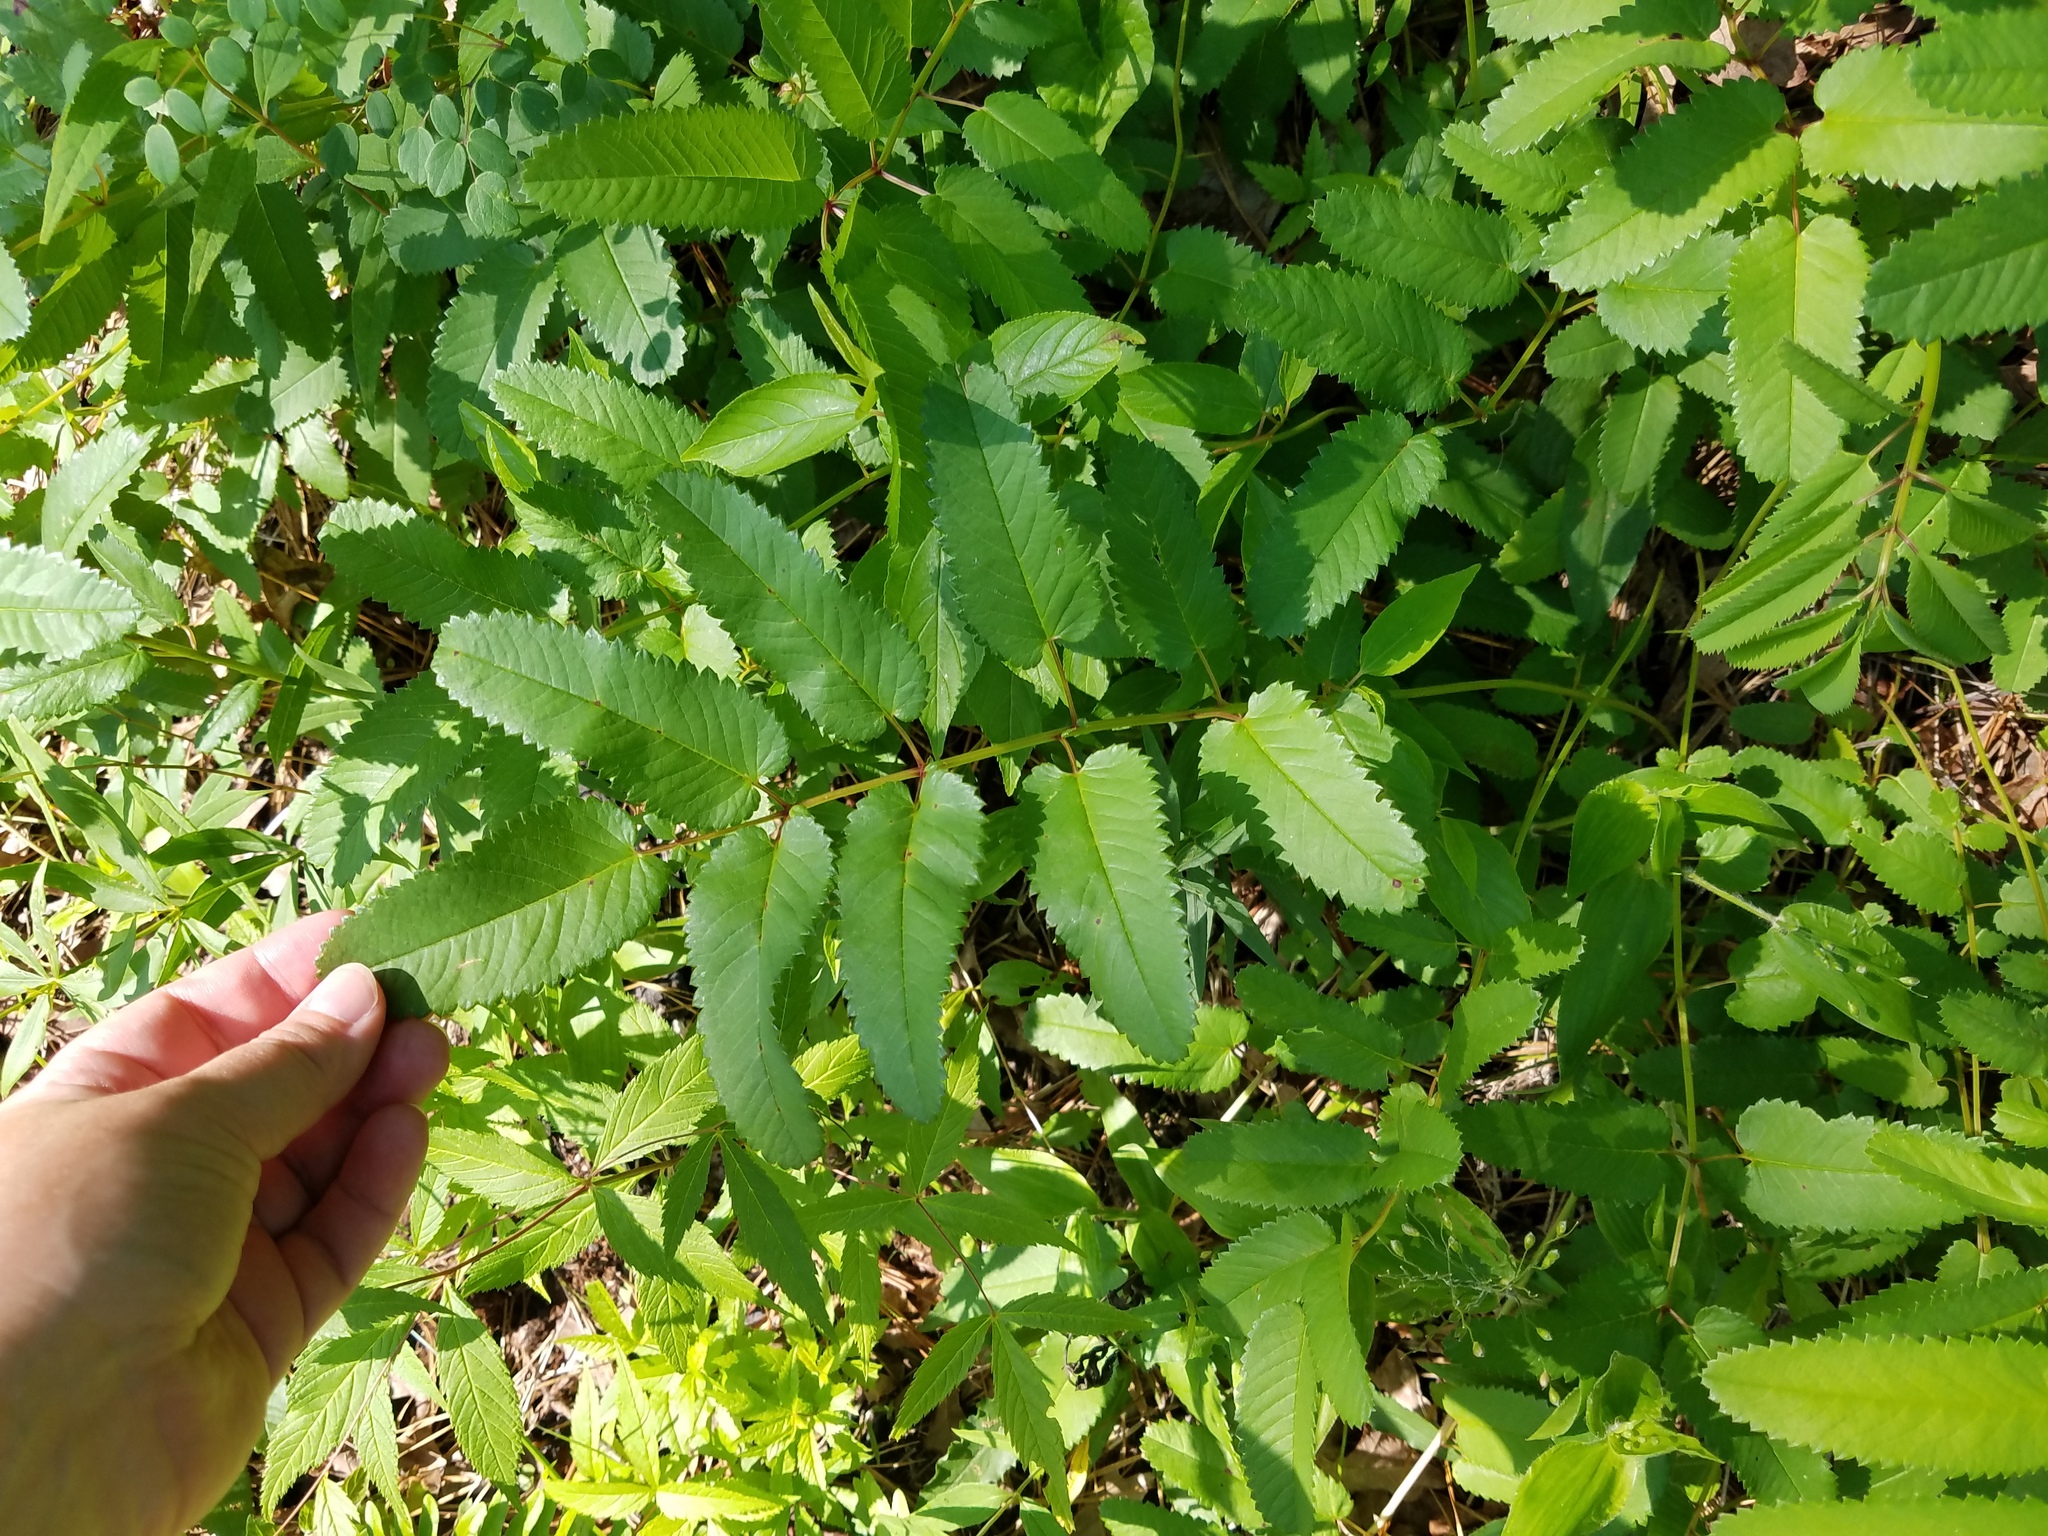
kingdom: Plantae
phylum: Tracheophyta
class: Magnoliopsida
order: Rosales
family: Rosaceae
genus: Sanguisorba
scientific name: Sanguisorba canadensis
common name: White burnet
